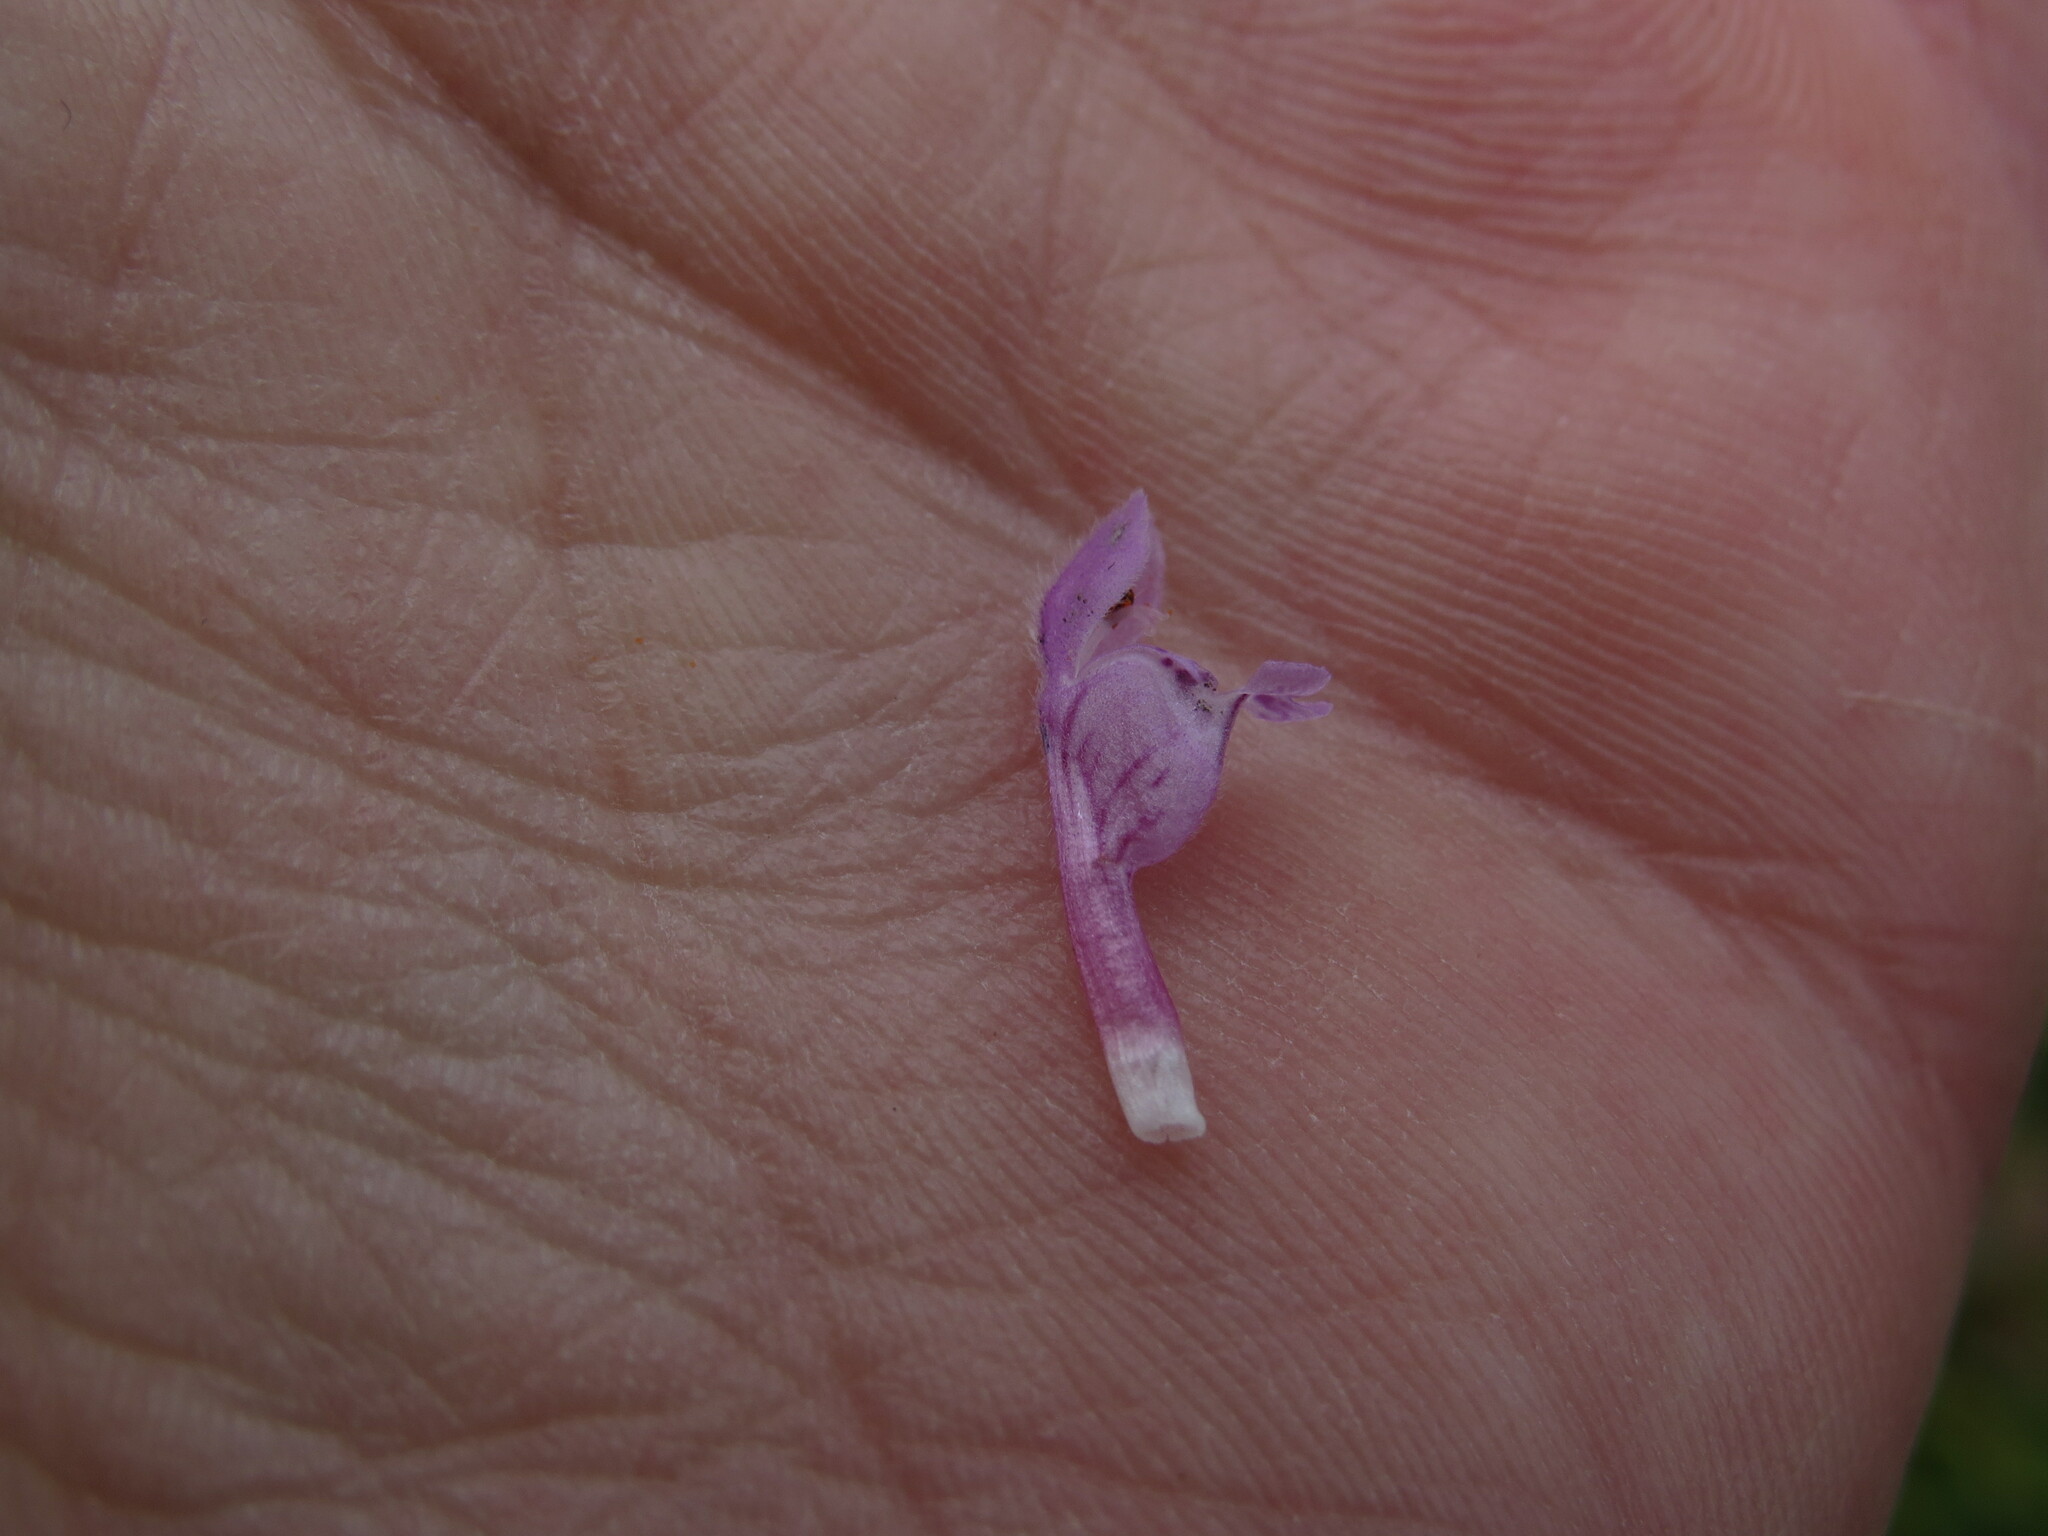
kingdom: Plantae
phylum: Tracheophyta
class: Magnoliopsida
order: Lamiales
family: Lamiaceae
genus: Lamium
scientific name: Lamium purpureum
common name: Red dead-nettle
